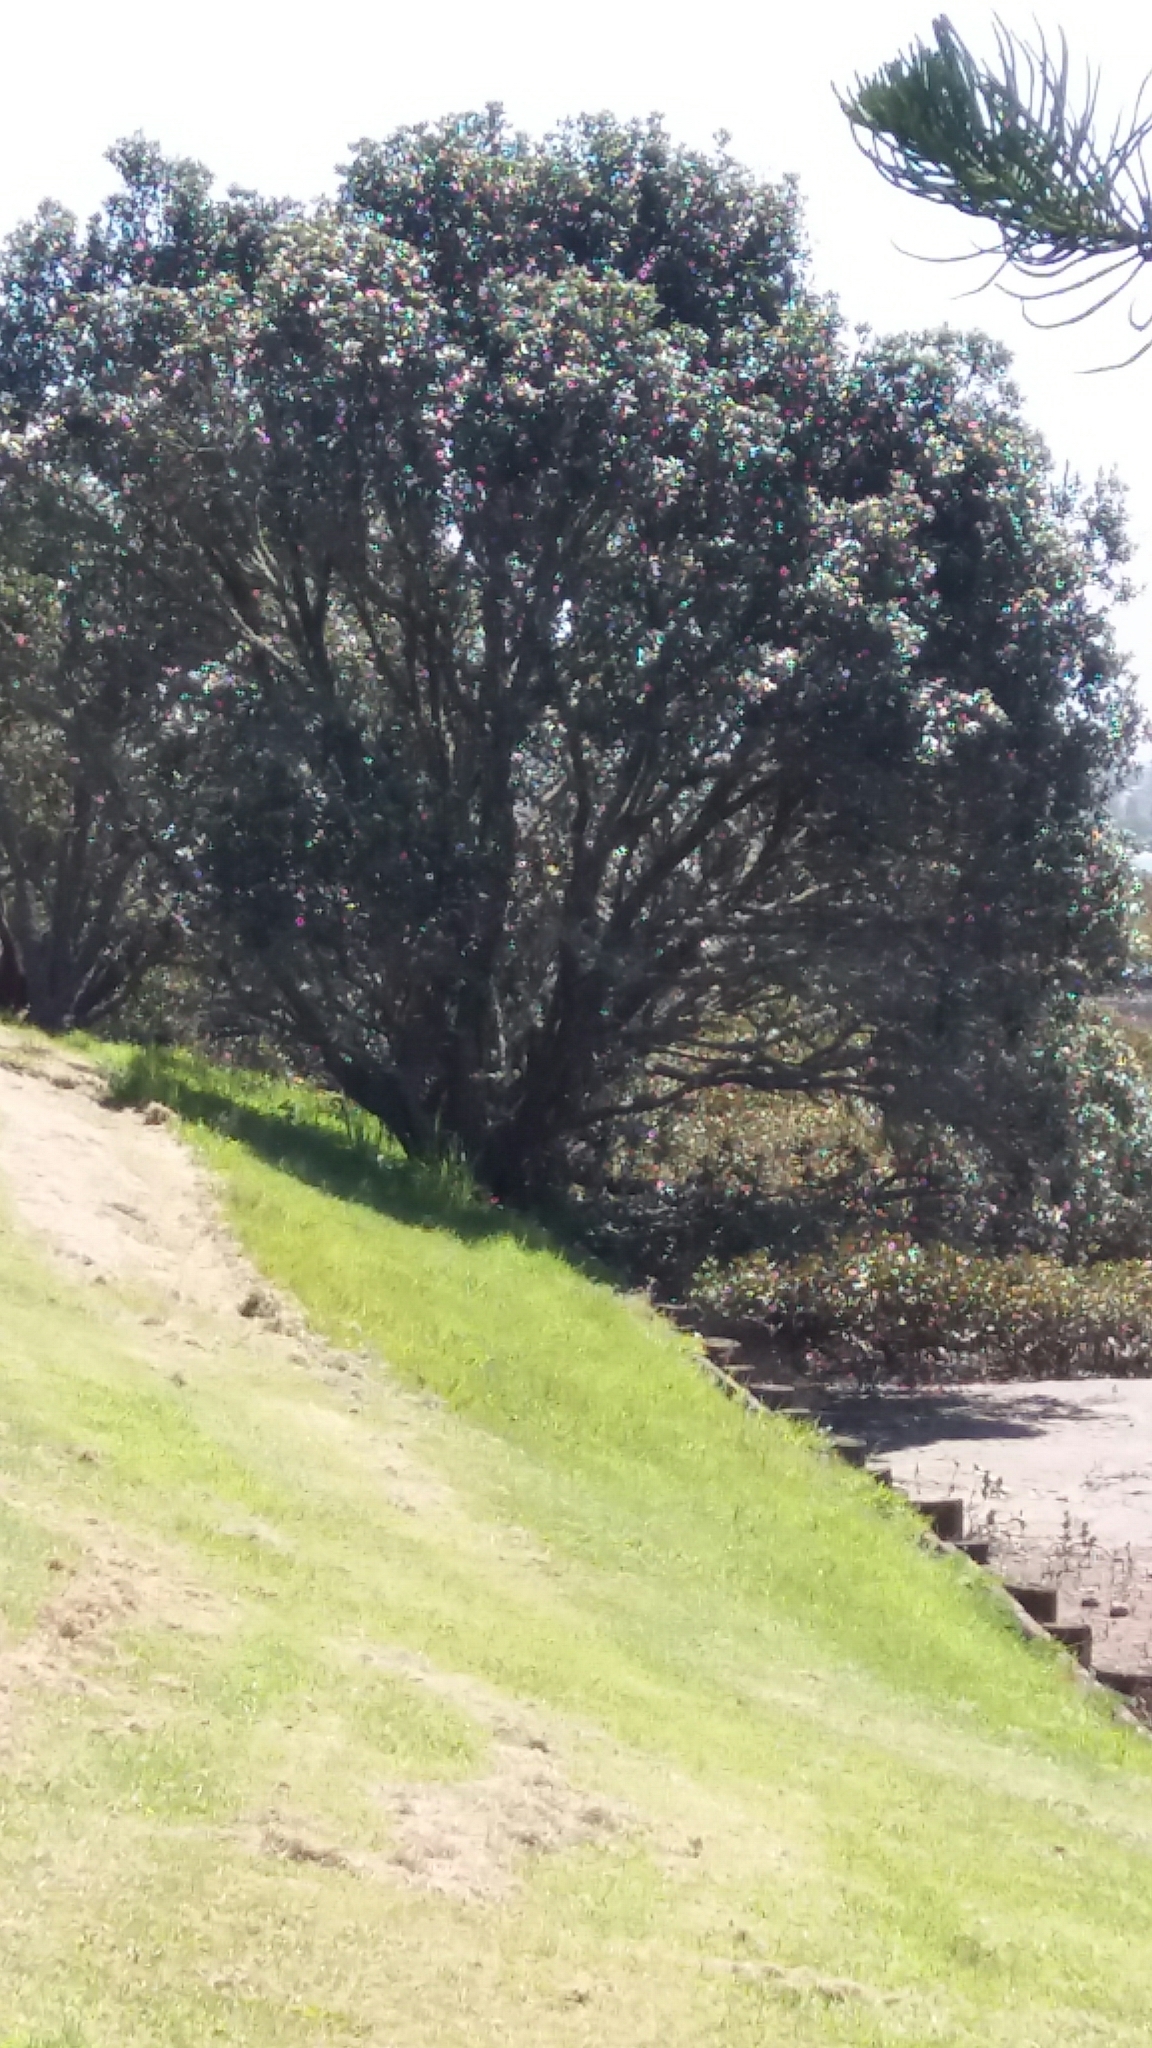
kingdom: Plantae
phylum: Tracheophyta
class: Magnoliopsida
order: Myrtales
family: Myrtaceae
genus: Metrosideros
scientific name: Metrosideros excelsa
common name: New zealand christmastree
